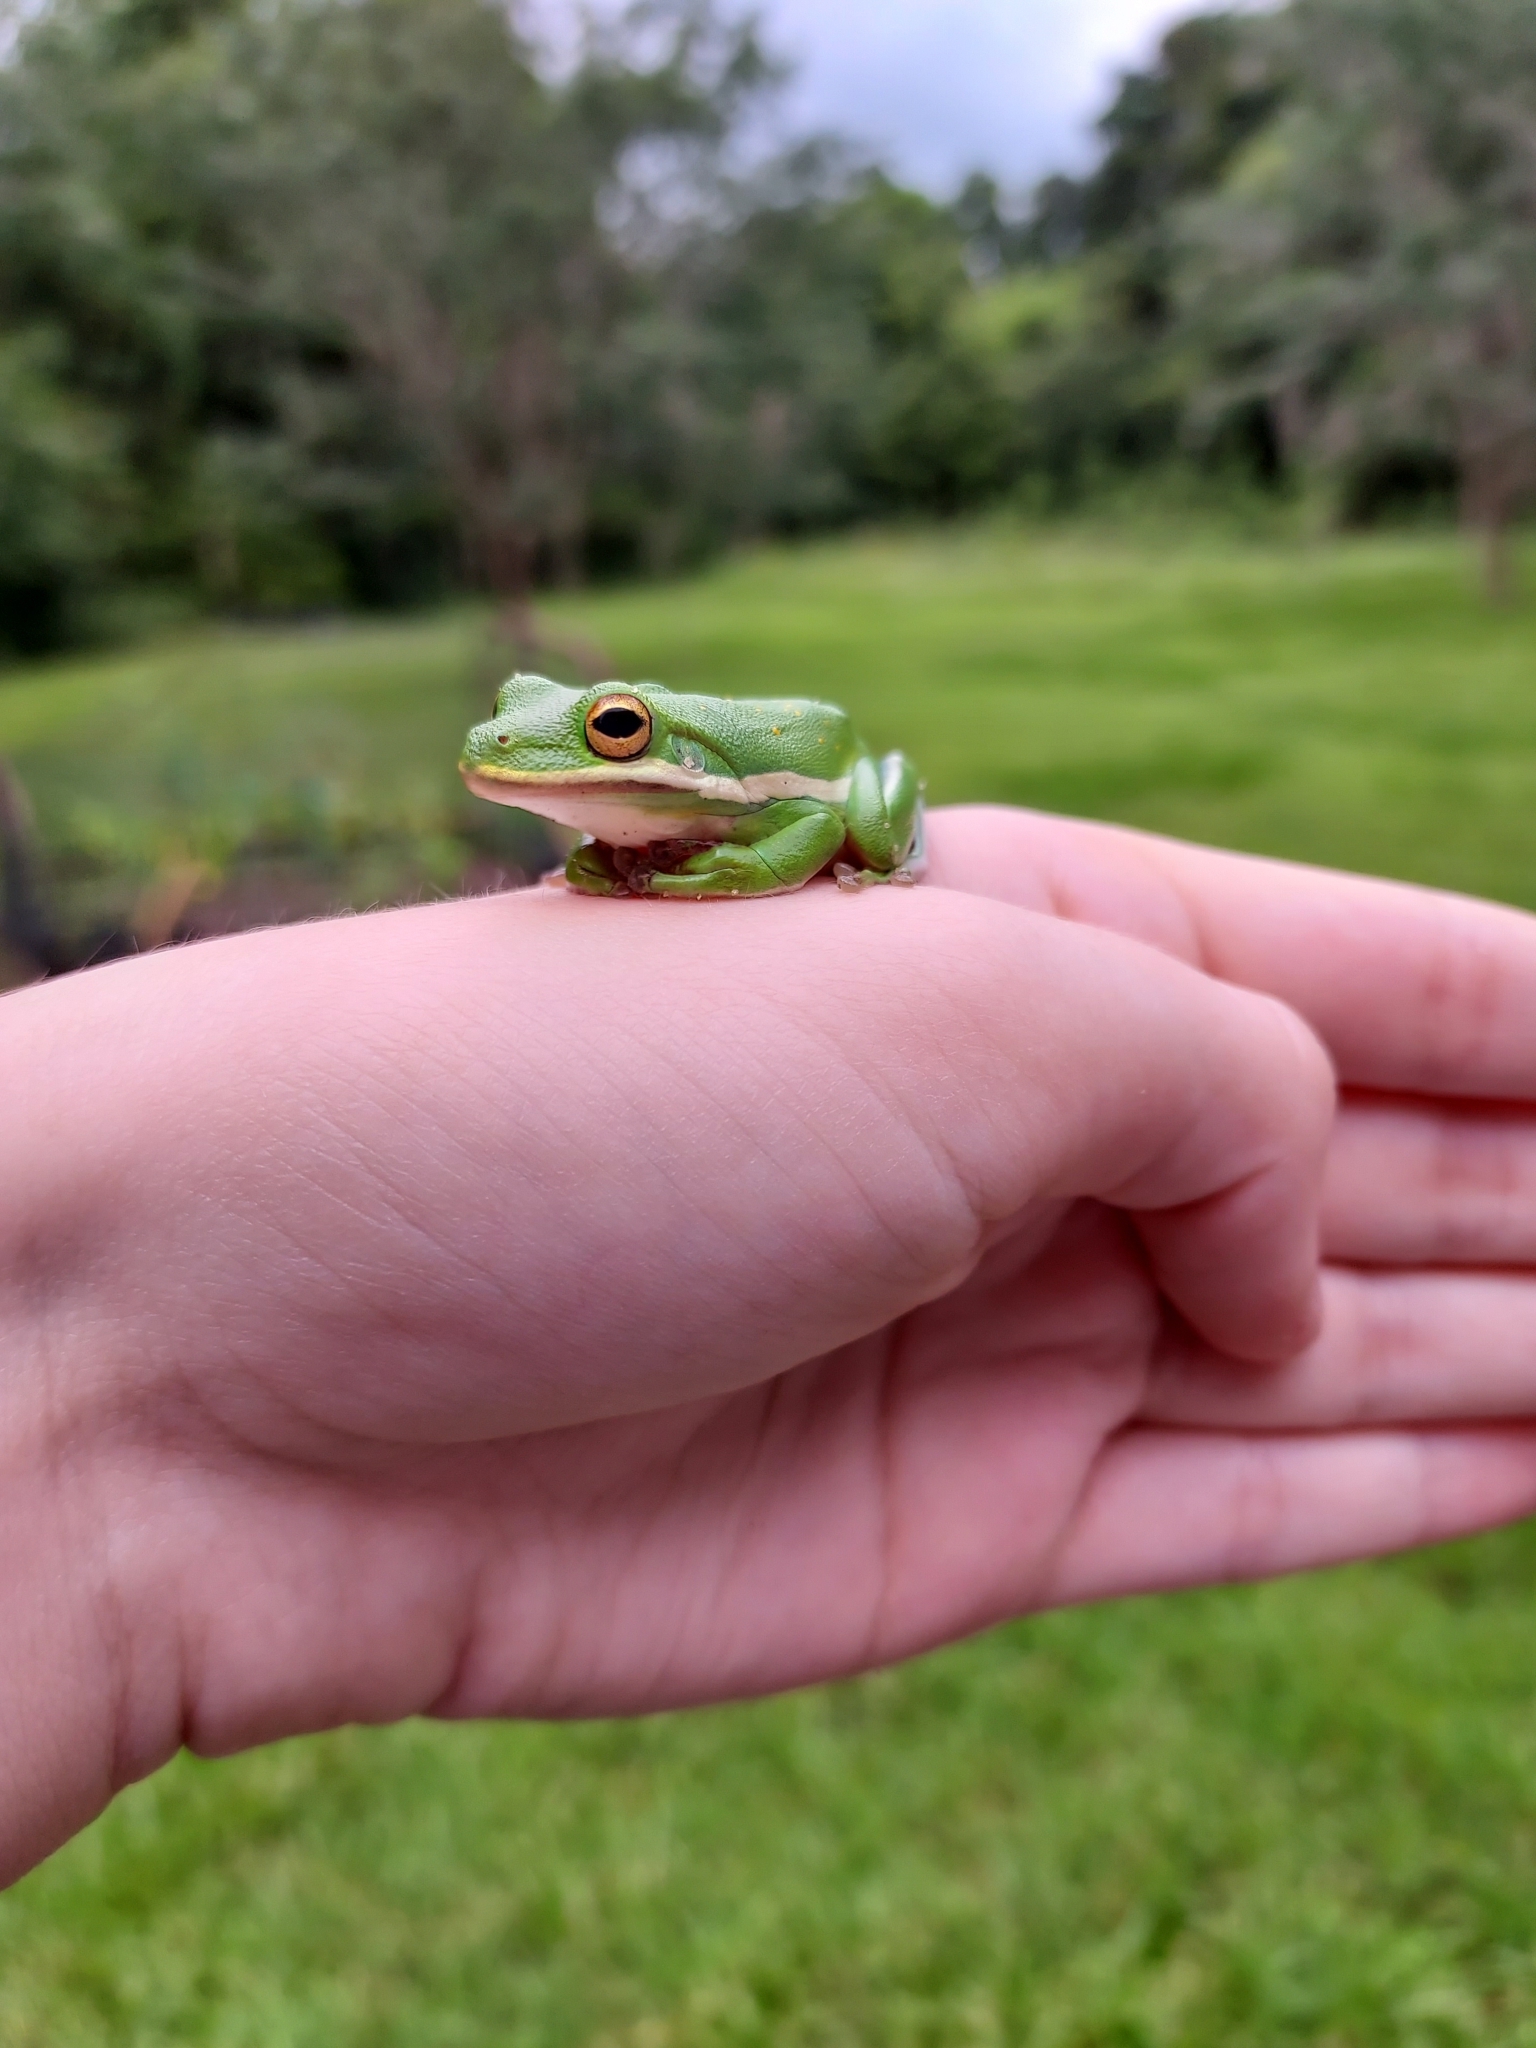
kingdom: Animalia
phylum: Chordata
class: Amphibia
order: Anura
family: Hylidae
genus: Dryophytes
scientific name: Dryophytes cinereus
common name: Green treefrog
